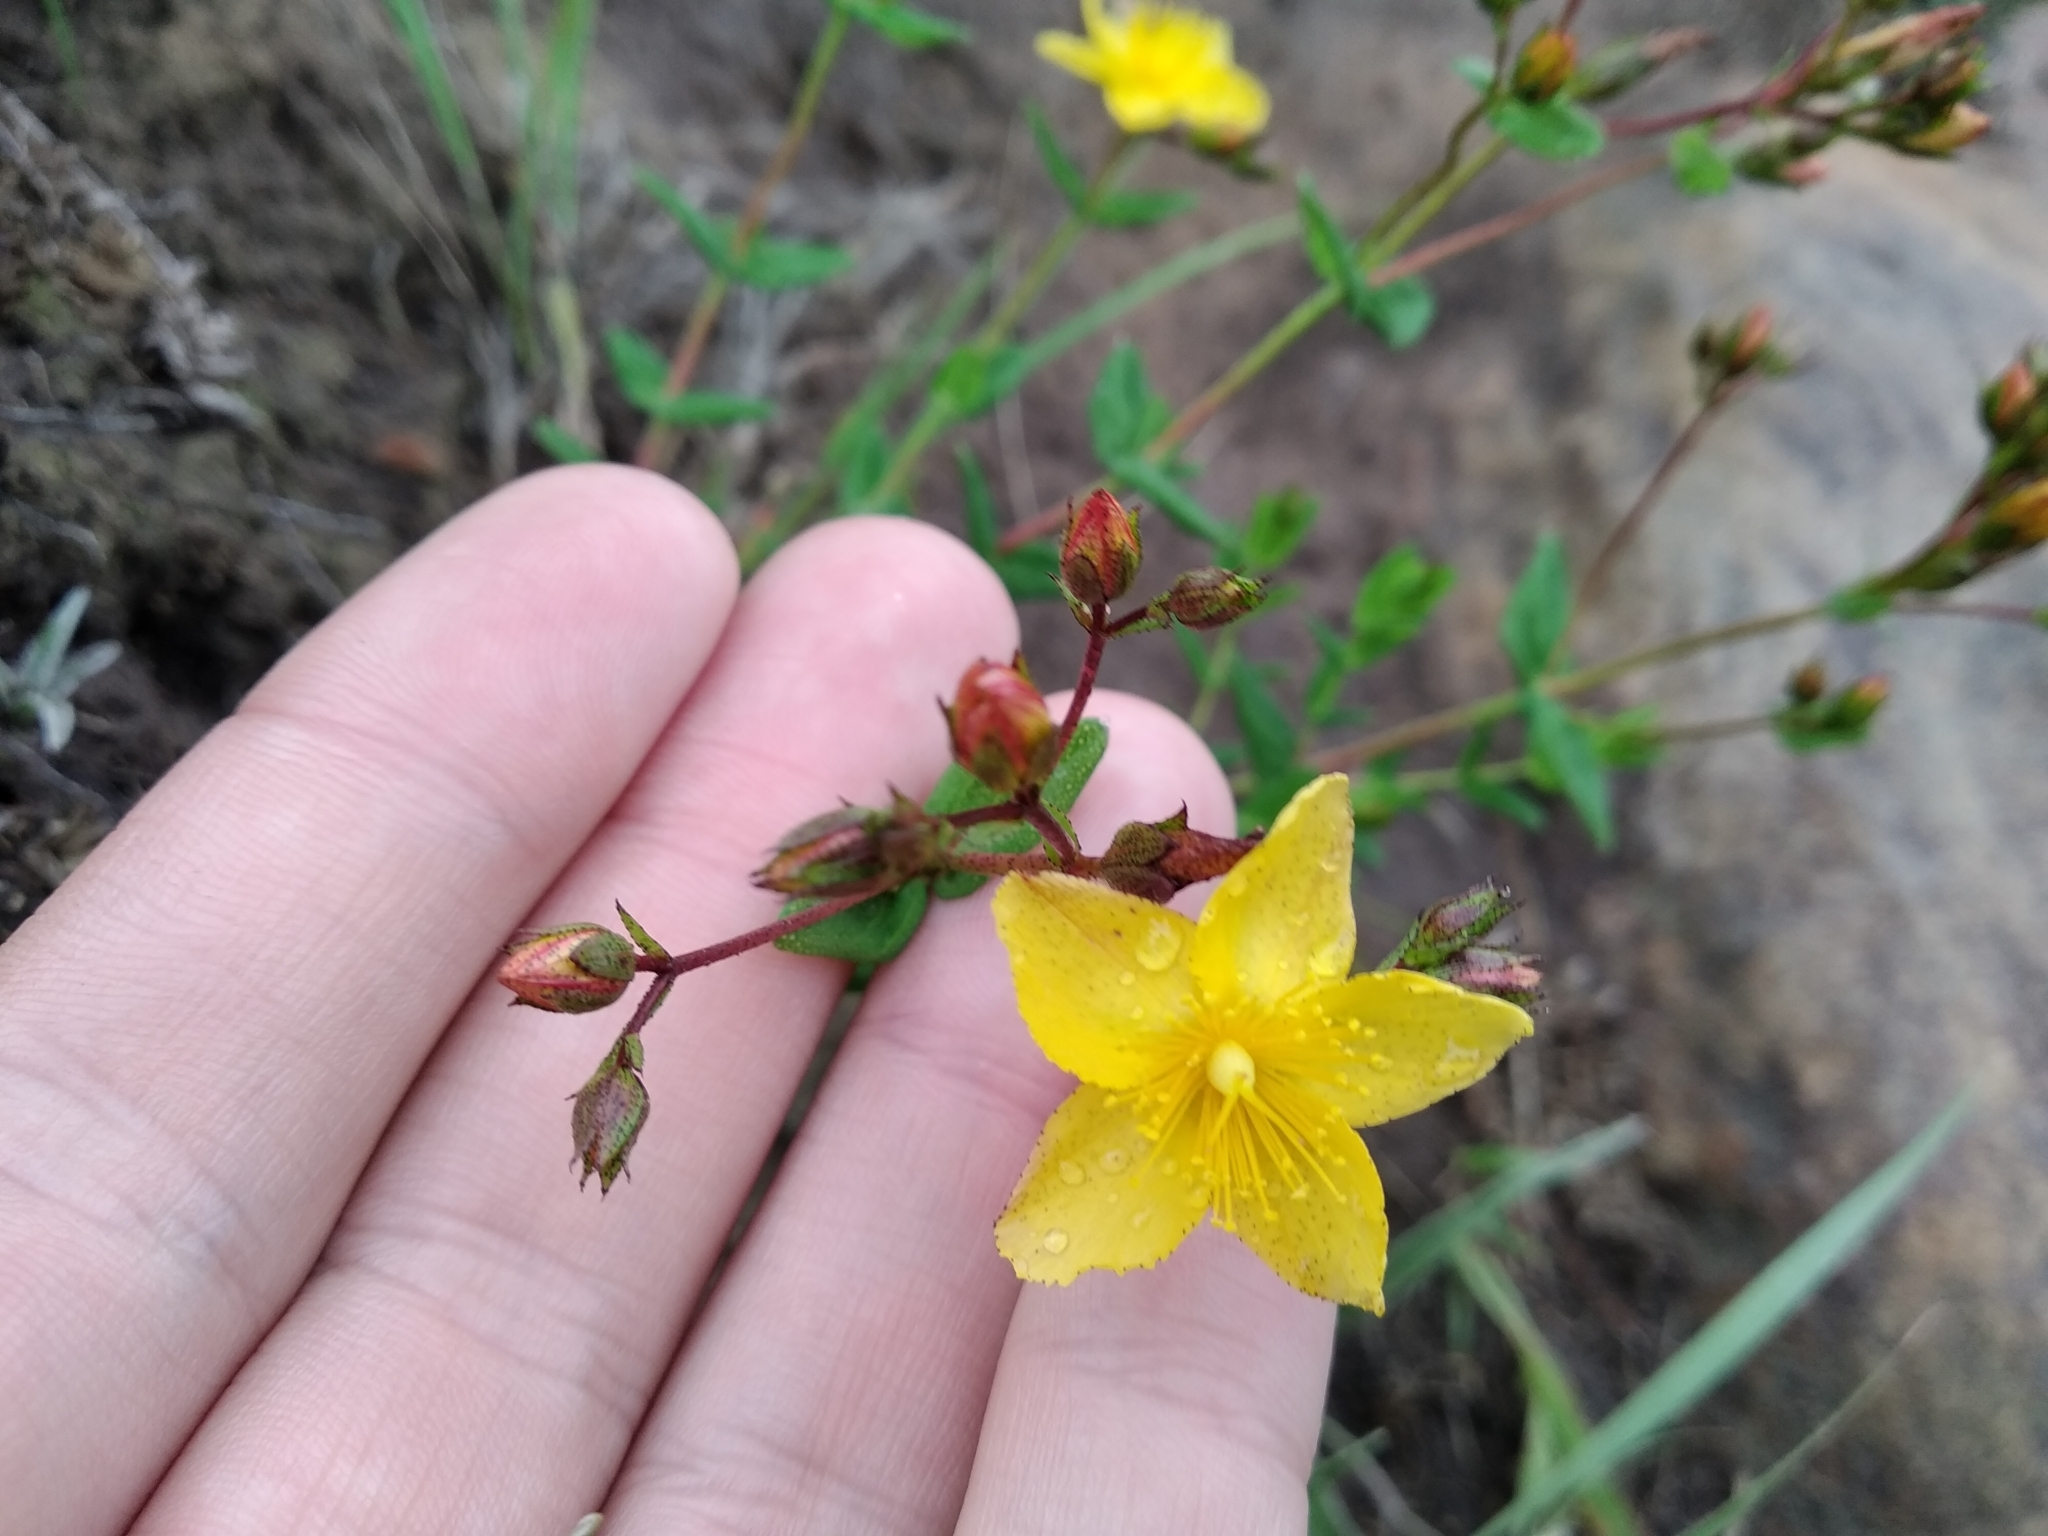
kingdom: Plantae
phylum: Tracheophyta
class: Magnoliopsida
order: Malpighiales
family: Hypericaceae
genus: Hypericum
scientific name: Hypericum aethiopicum
